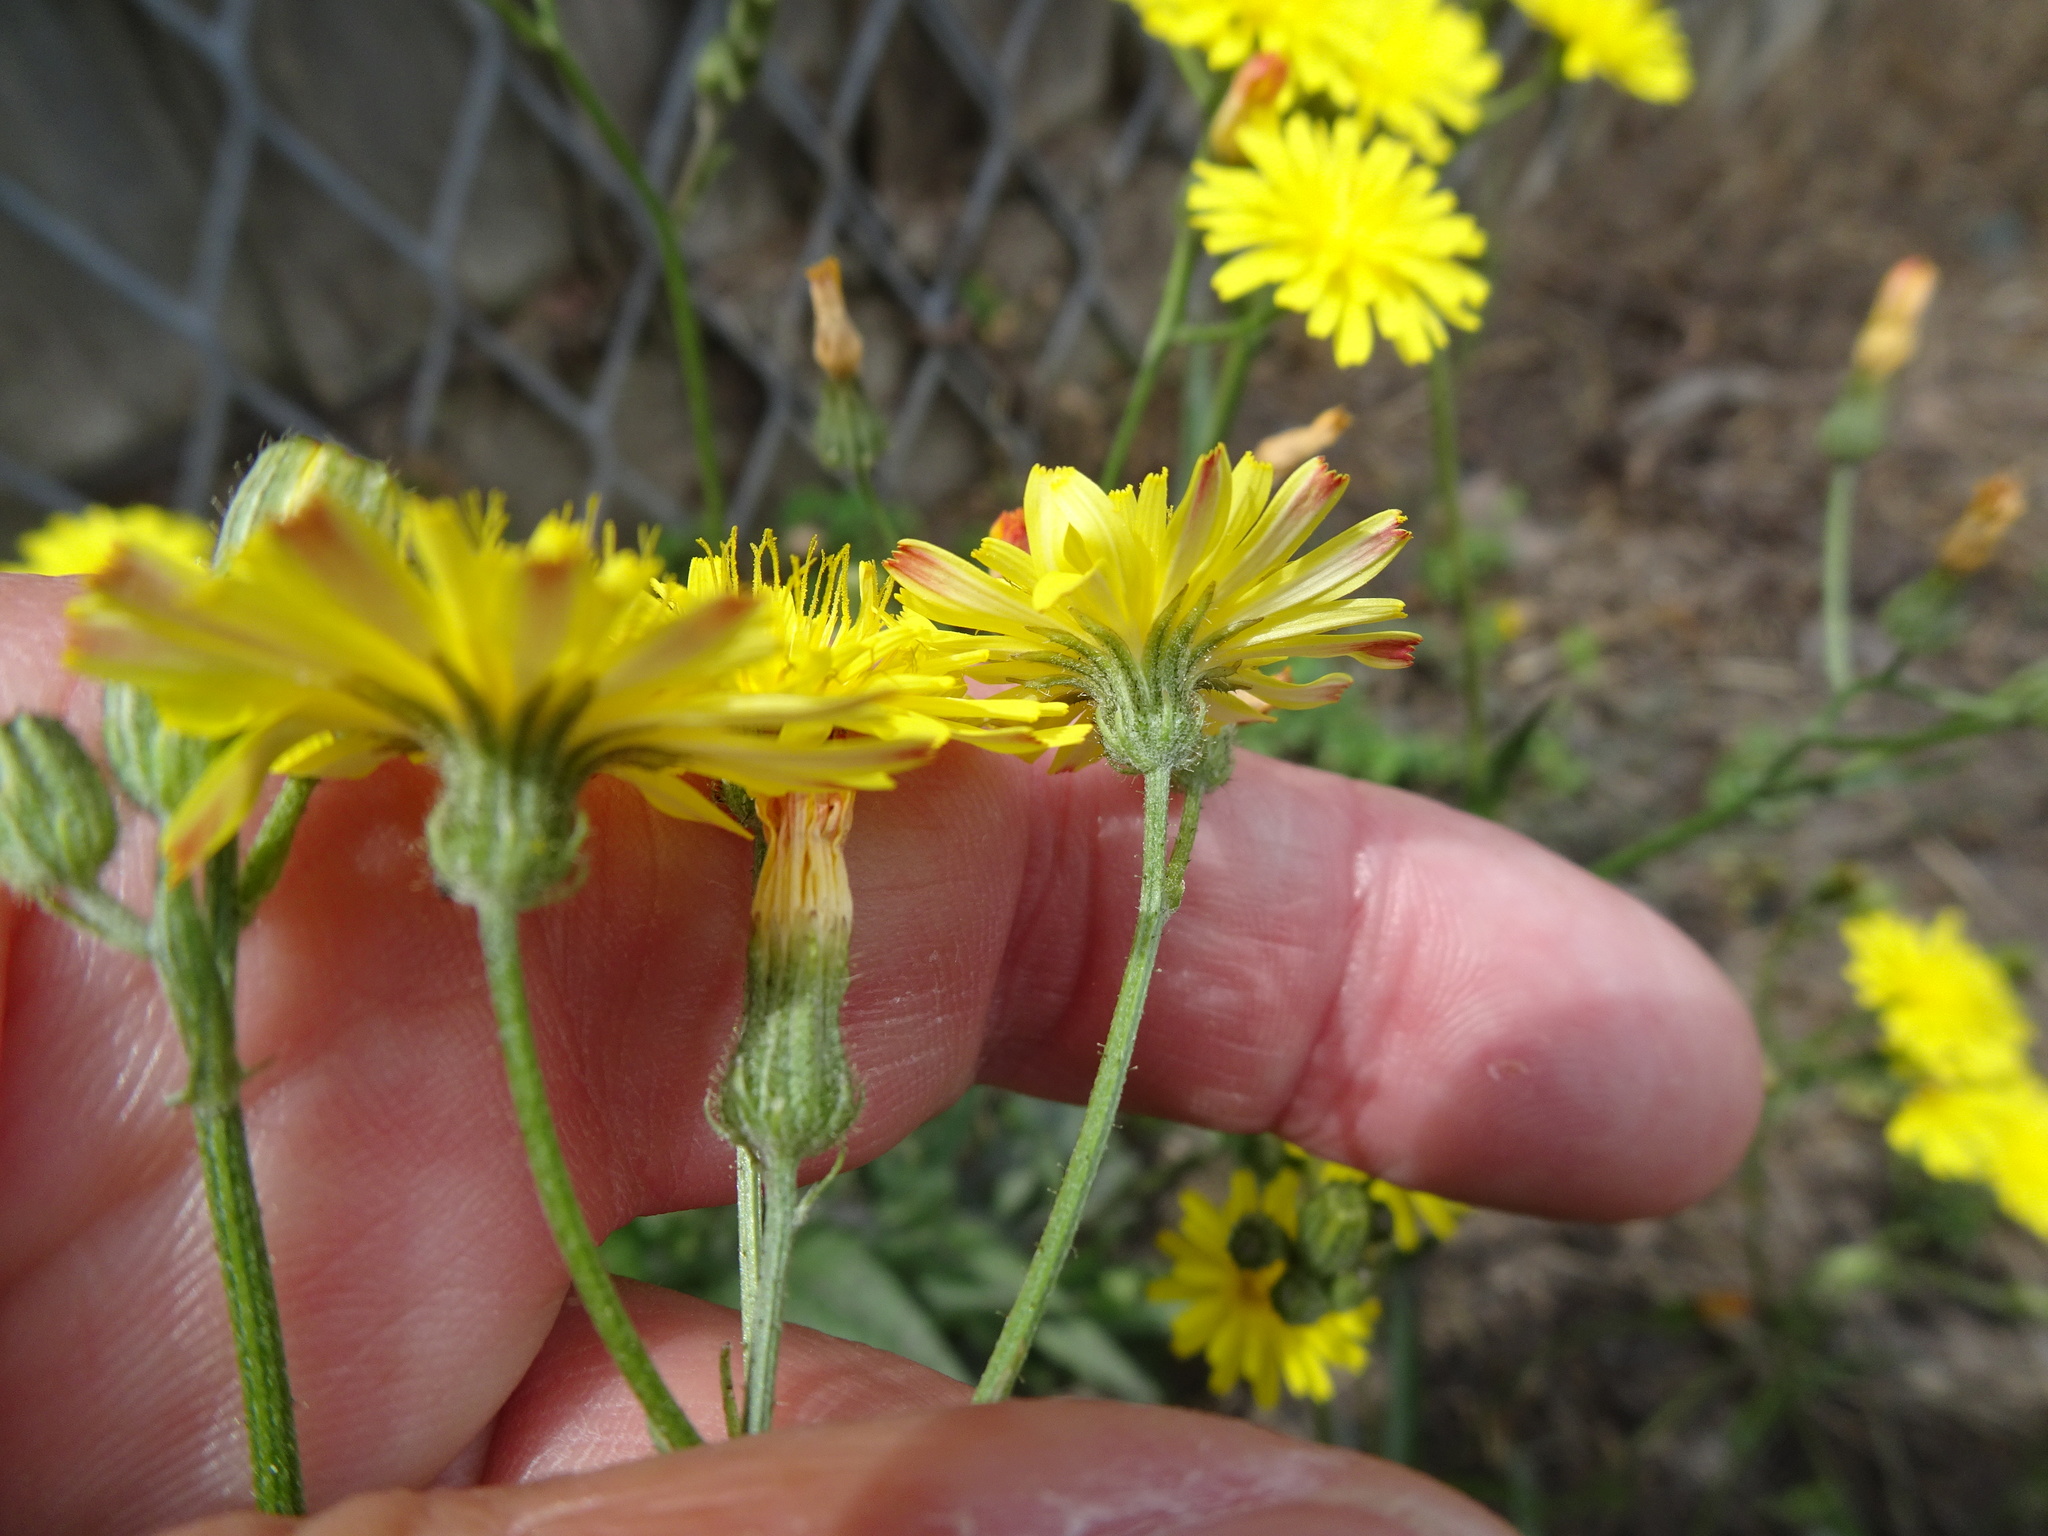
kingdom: Plantae
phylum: Tracheophyta
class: Magnoliopsida
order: Asterales
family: Asteraceae
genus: Crepis
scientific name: Crepis capillaris
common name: Smooth hawksbeard
